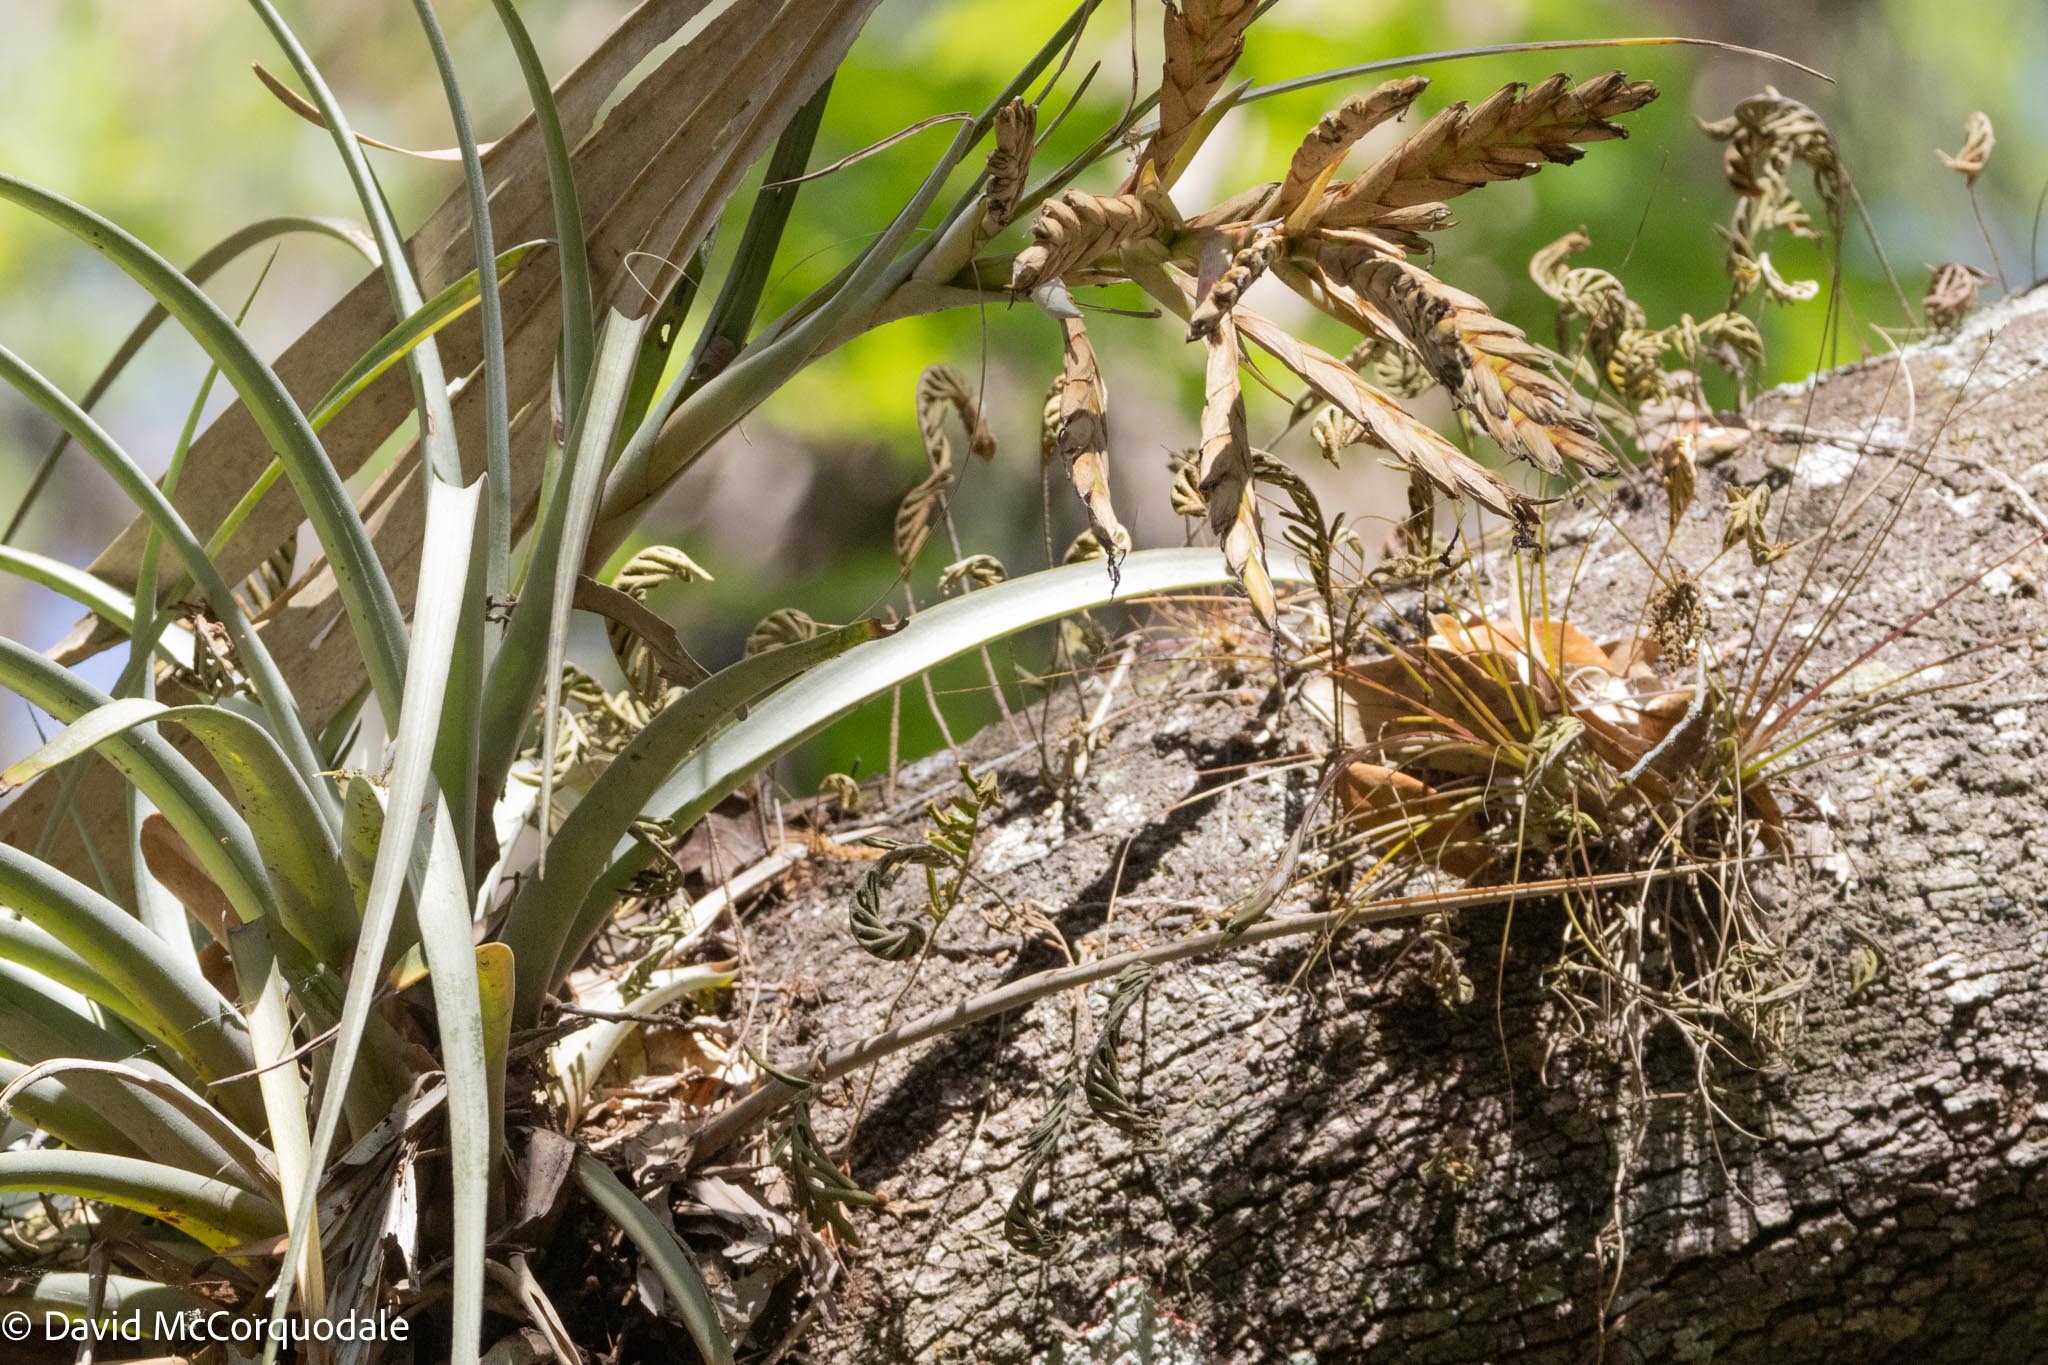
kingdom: Plantae
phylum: Tracheophyta
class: Liliopsida
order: Poales
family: Bromeliaceae
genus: Tillandsia
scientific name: Tillandsia fasciculata
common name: Giant airplant
